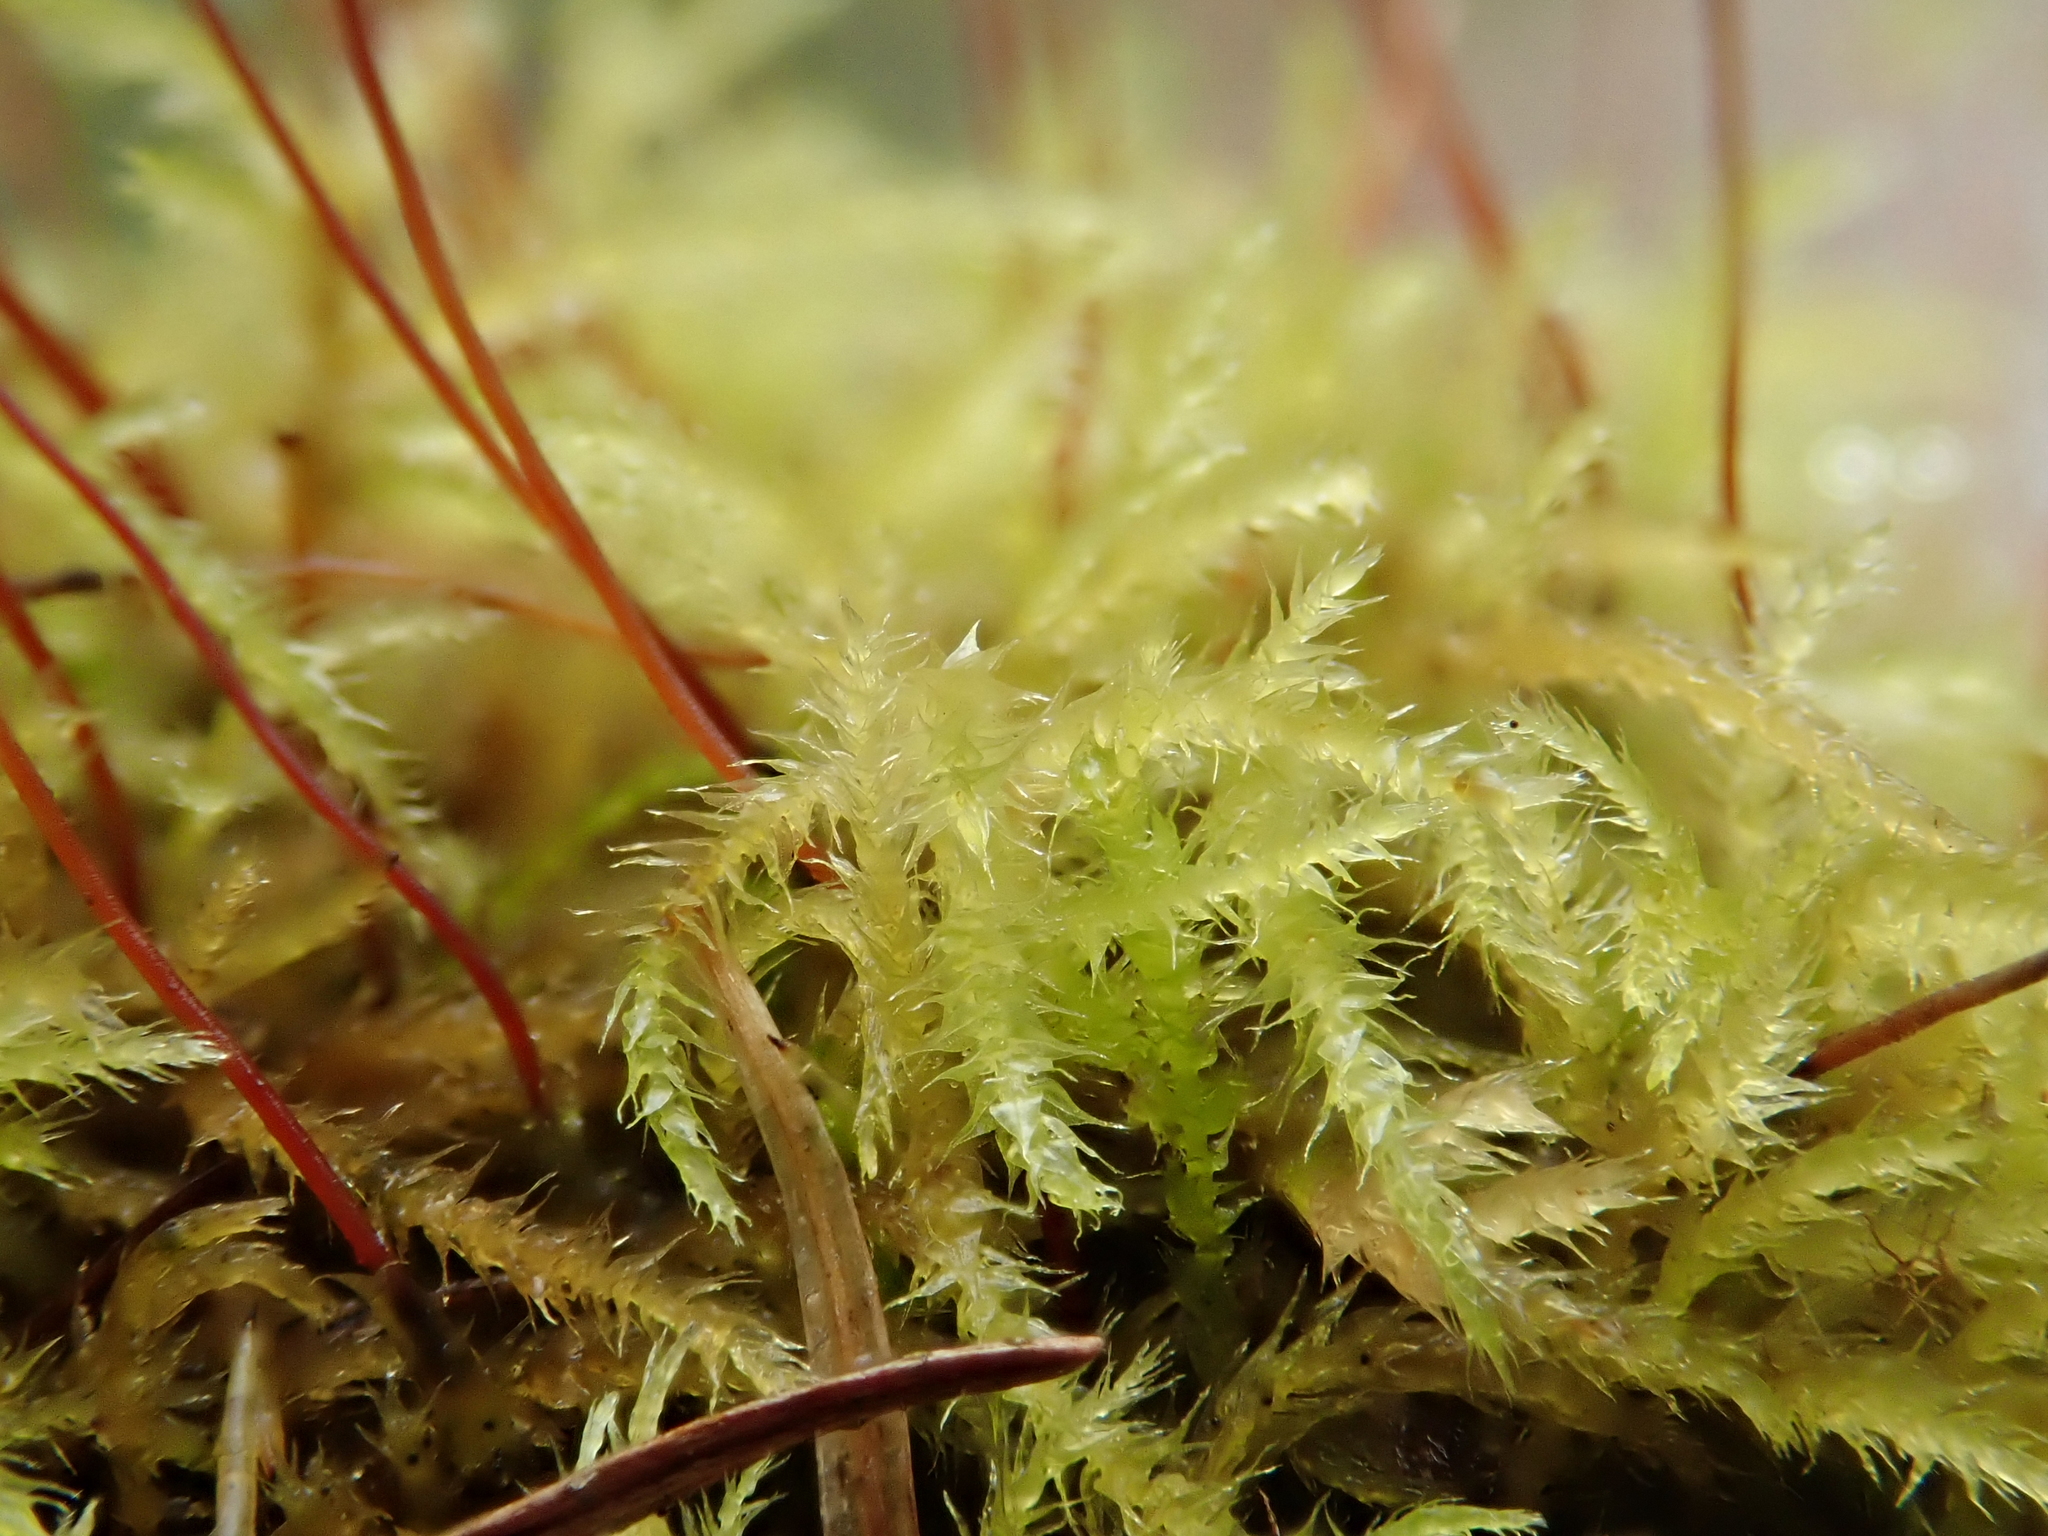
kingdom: Plantae
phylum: Bryophyta
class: Bryopsida
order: Hypnales
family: Brachytheciaceae
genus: Sciuro-hypnum
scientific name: Sciuro-hypnum reflexum
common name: Reflexed feather-moss
